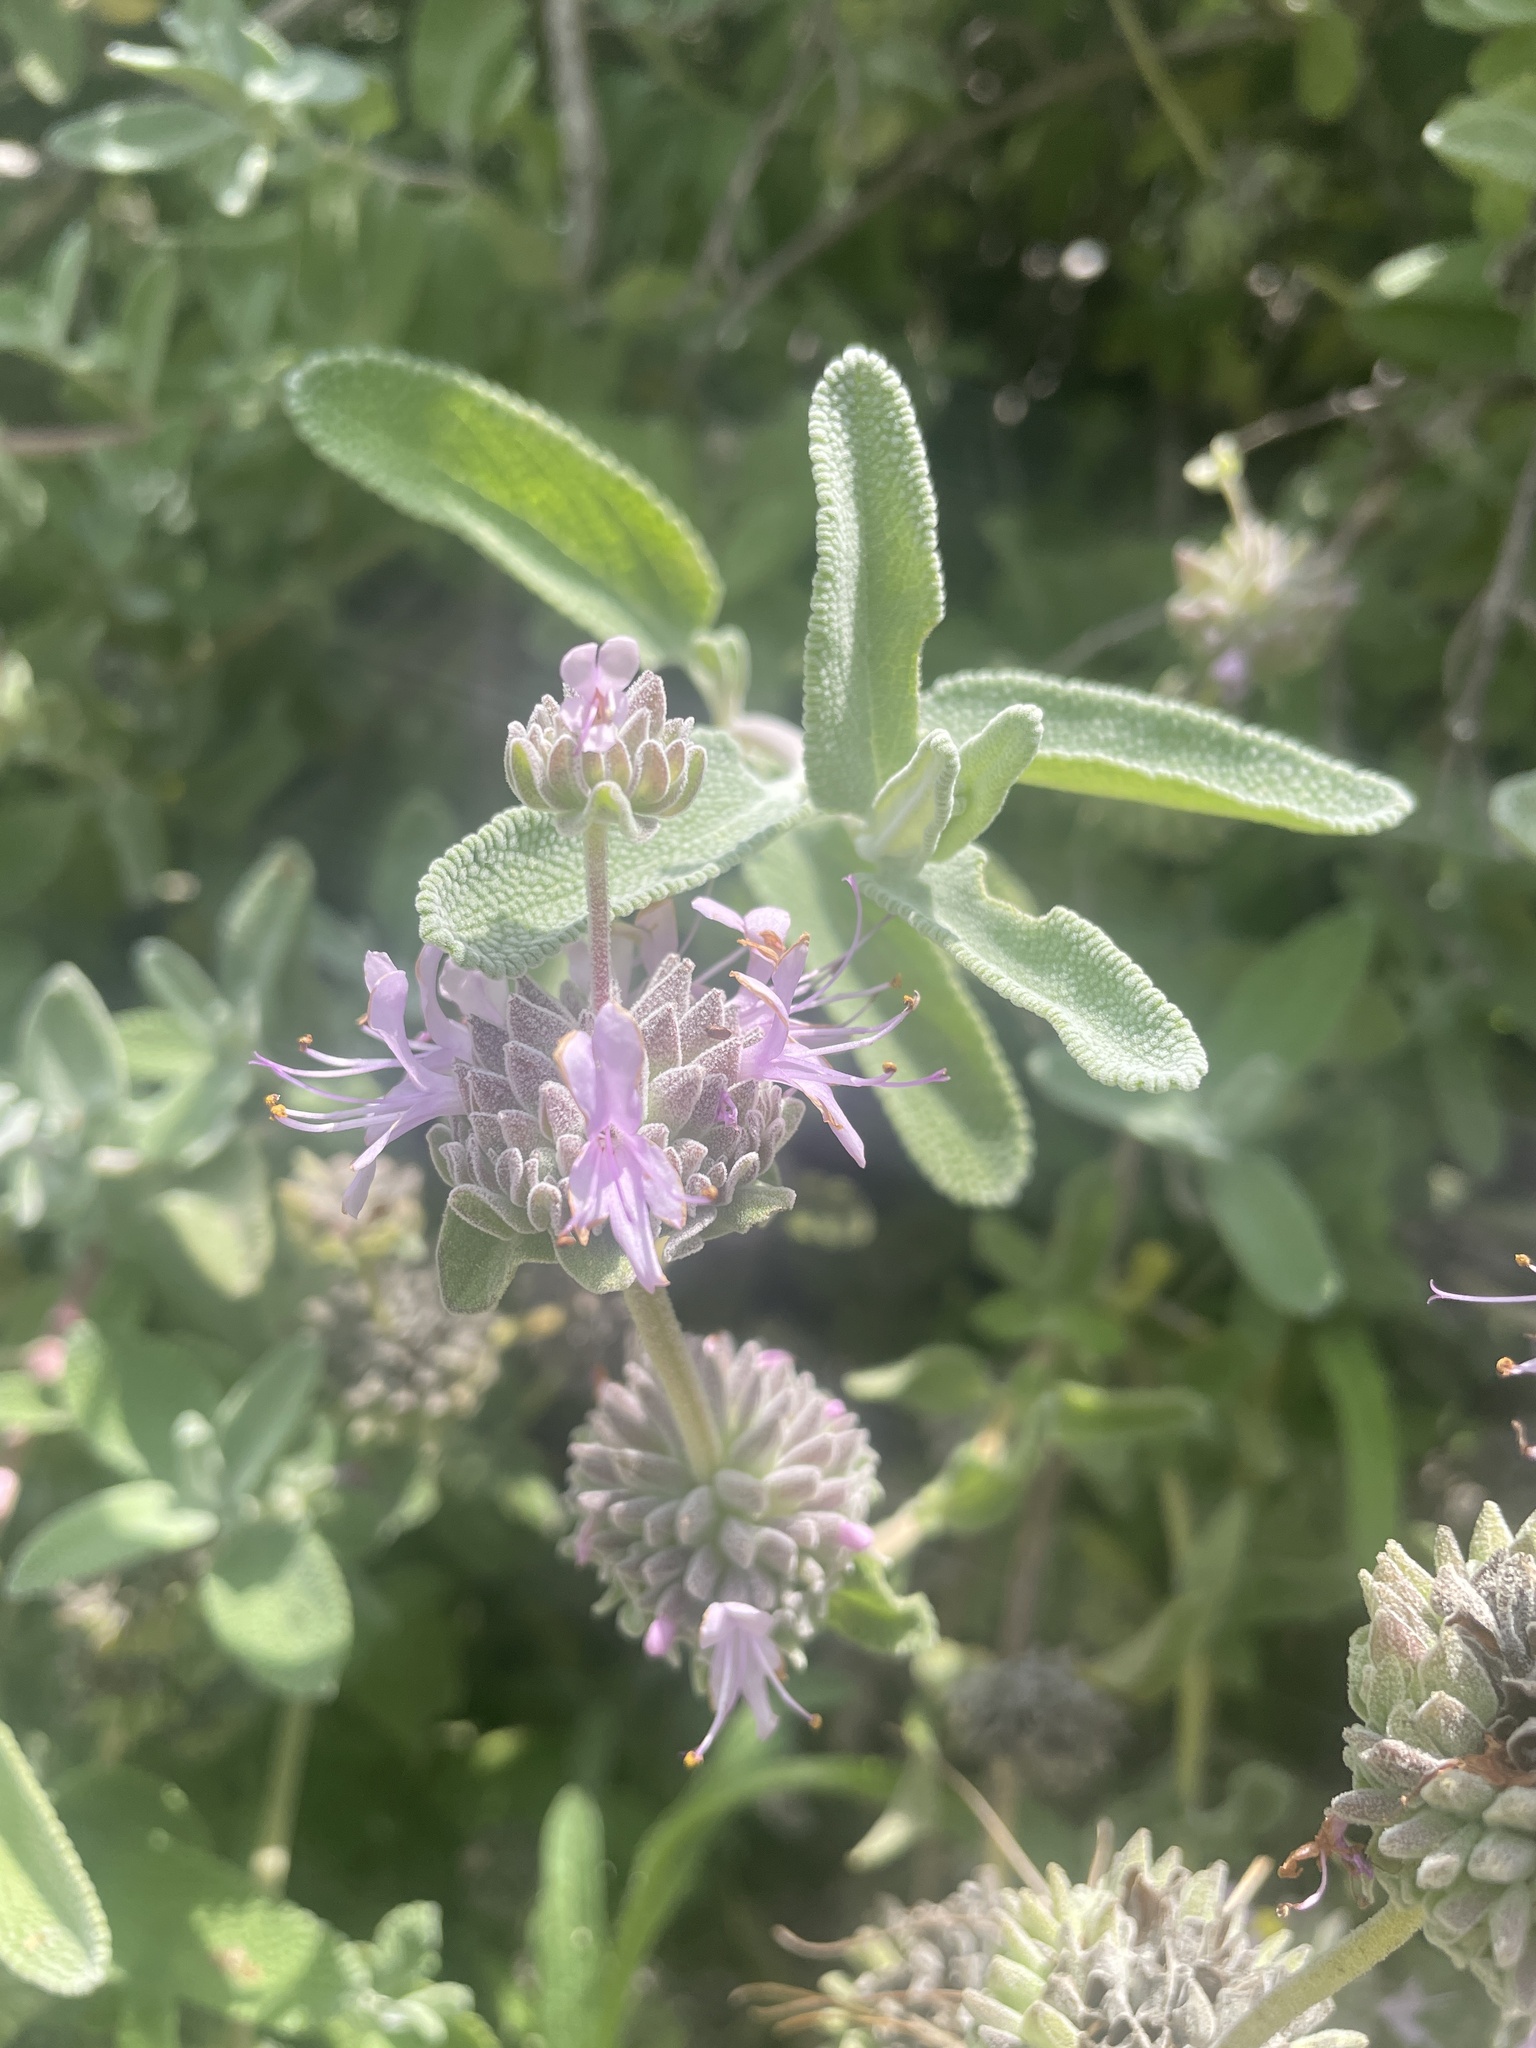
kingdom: Plantae
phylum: Tracheophyta
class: Magnoliopsida
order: Lamiales
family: Lamiaceae
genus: Salvia
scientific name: Salvia leucophylla
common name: Purple sage
